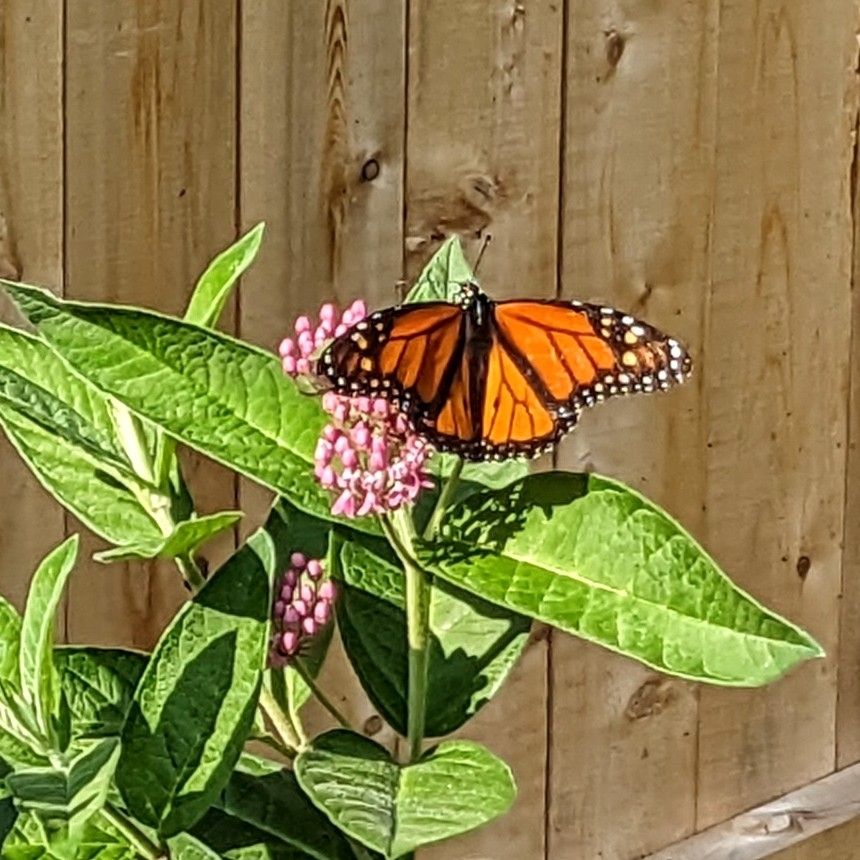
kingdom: Animalia
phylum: Arthropoda
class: Insecta
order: Lepidoptera
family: Nymphalidae
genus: Danaus
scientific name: Danaus plexippus
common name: Monarch
